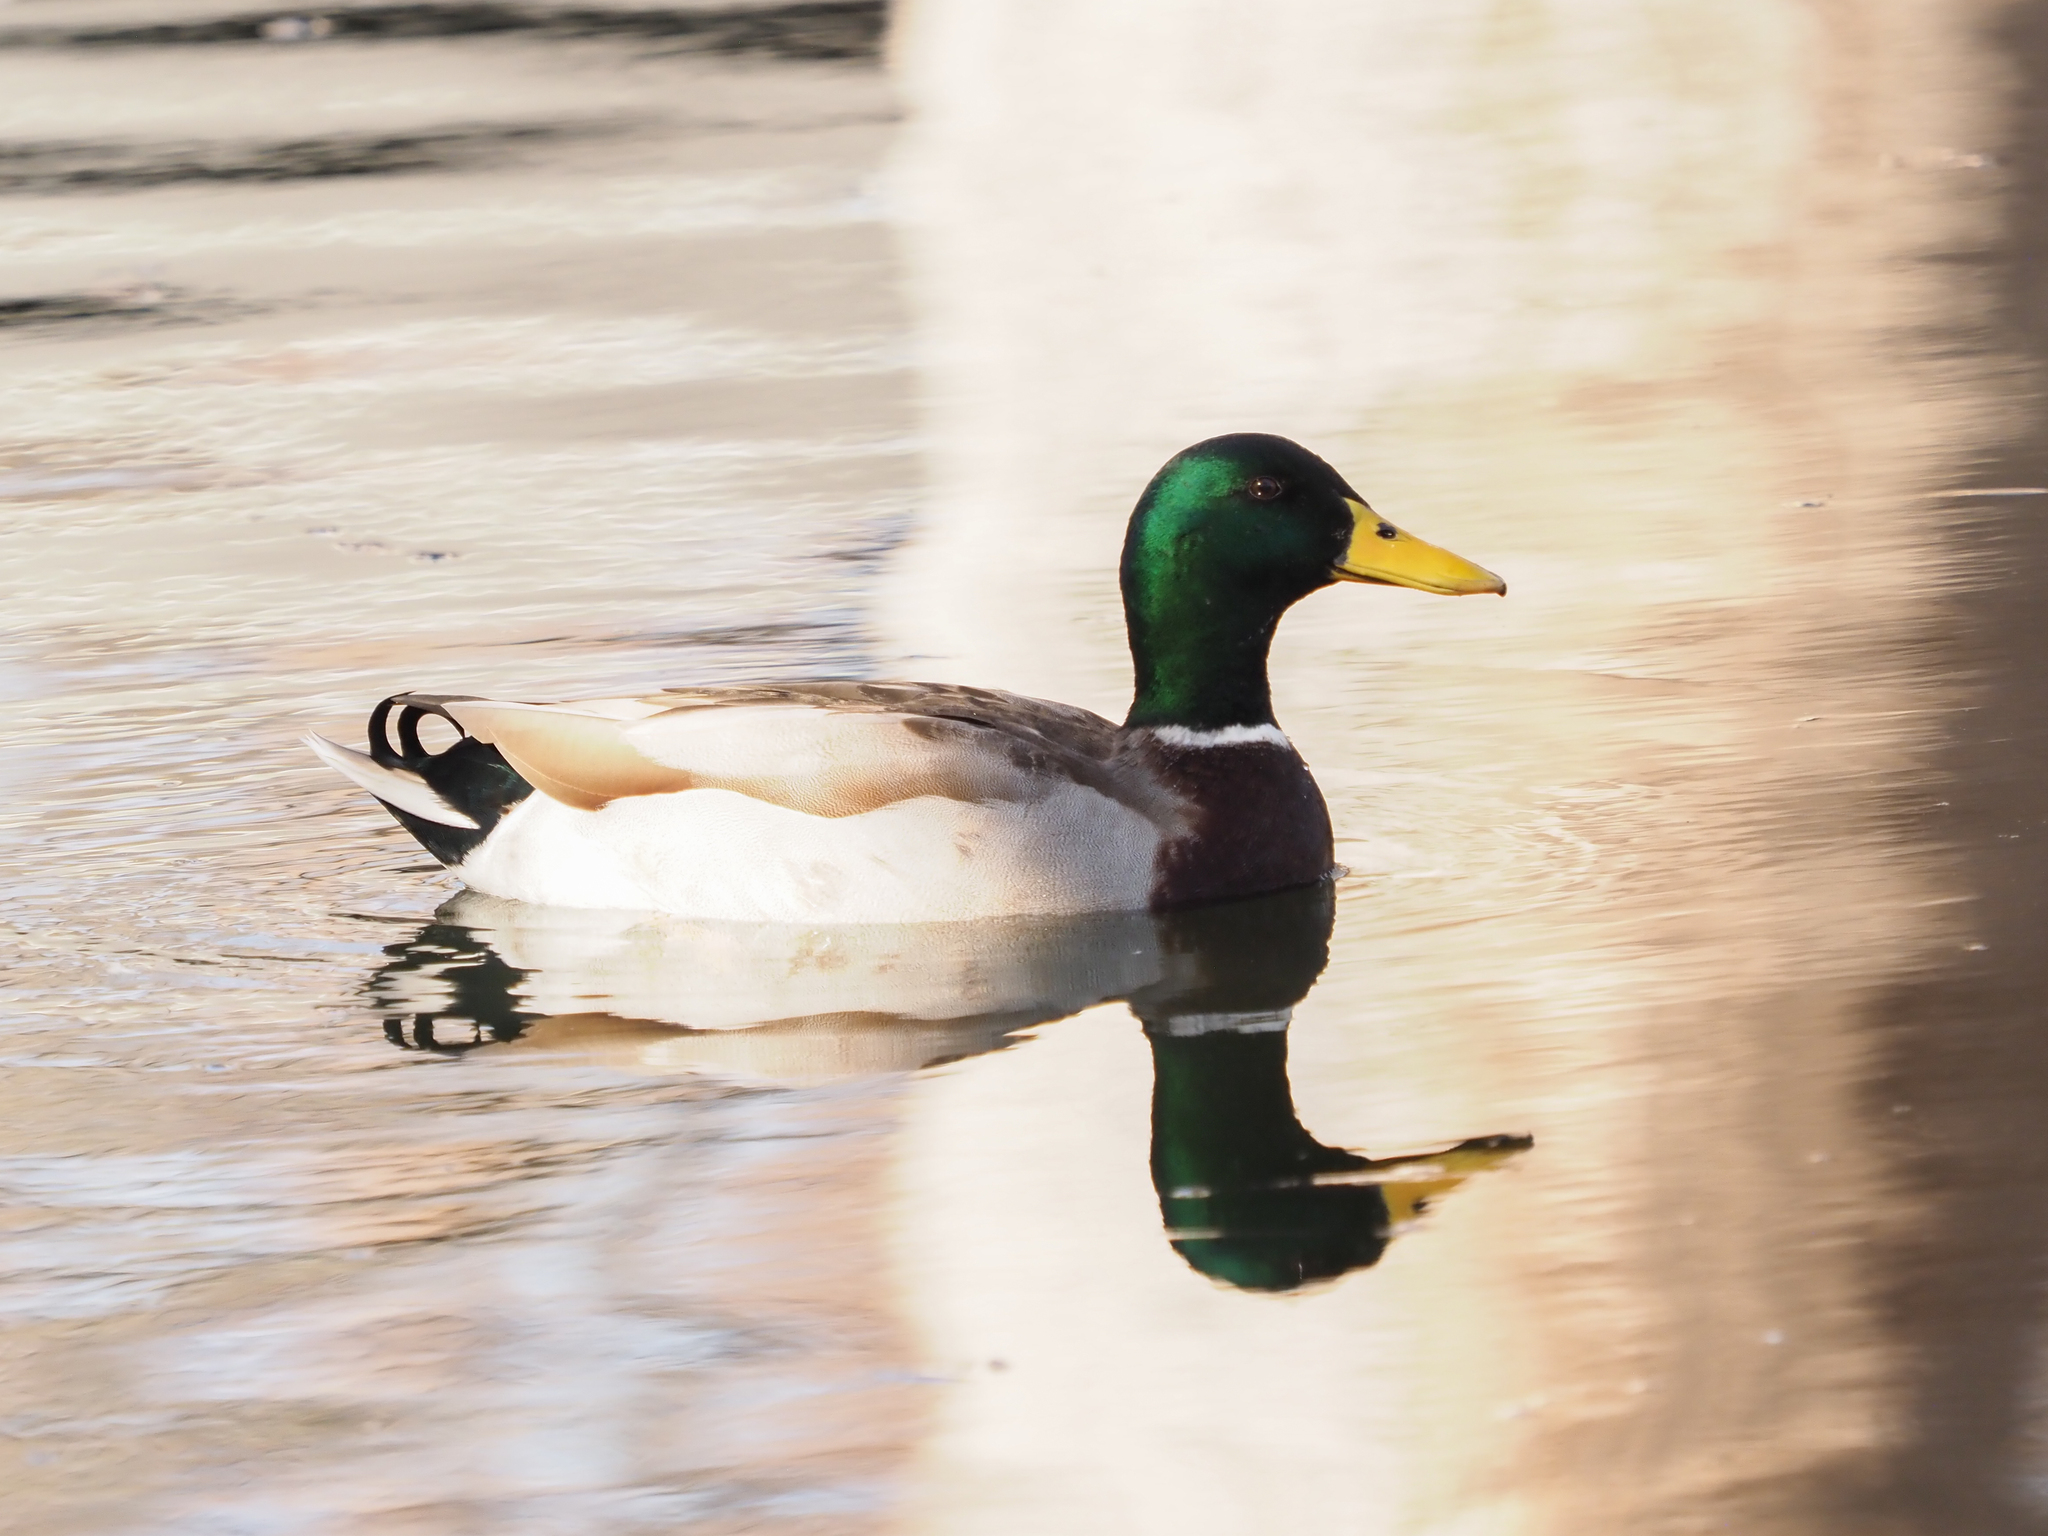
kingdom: Animalia
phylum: Chordata
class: Aves
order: Anseriformes
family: Anatidae
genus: Anas
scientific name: Anas platyrhynchos
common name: Mallard
